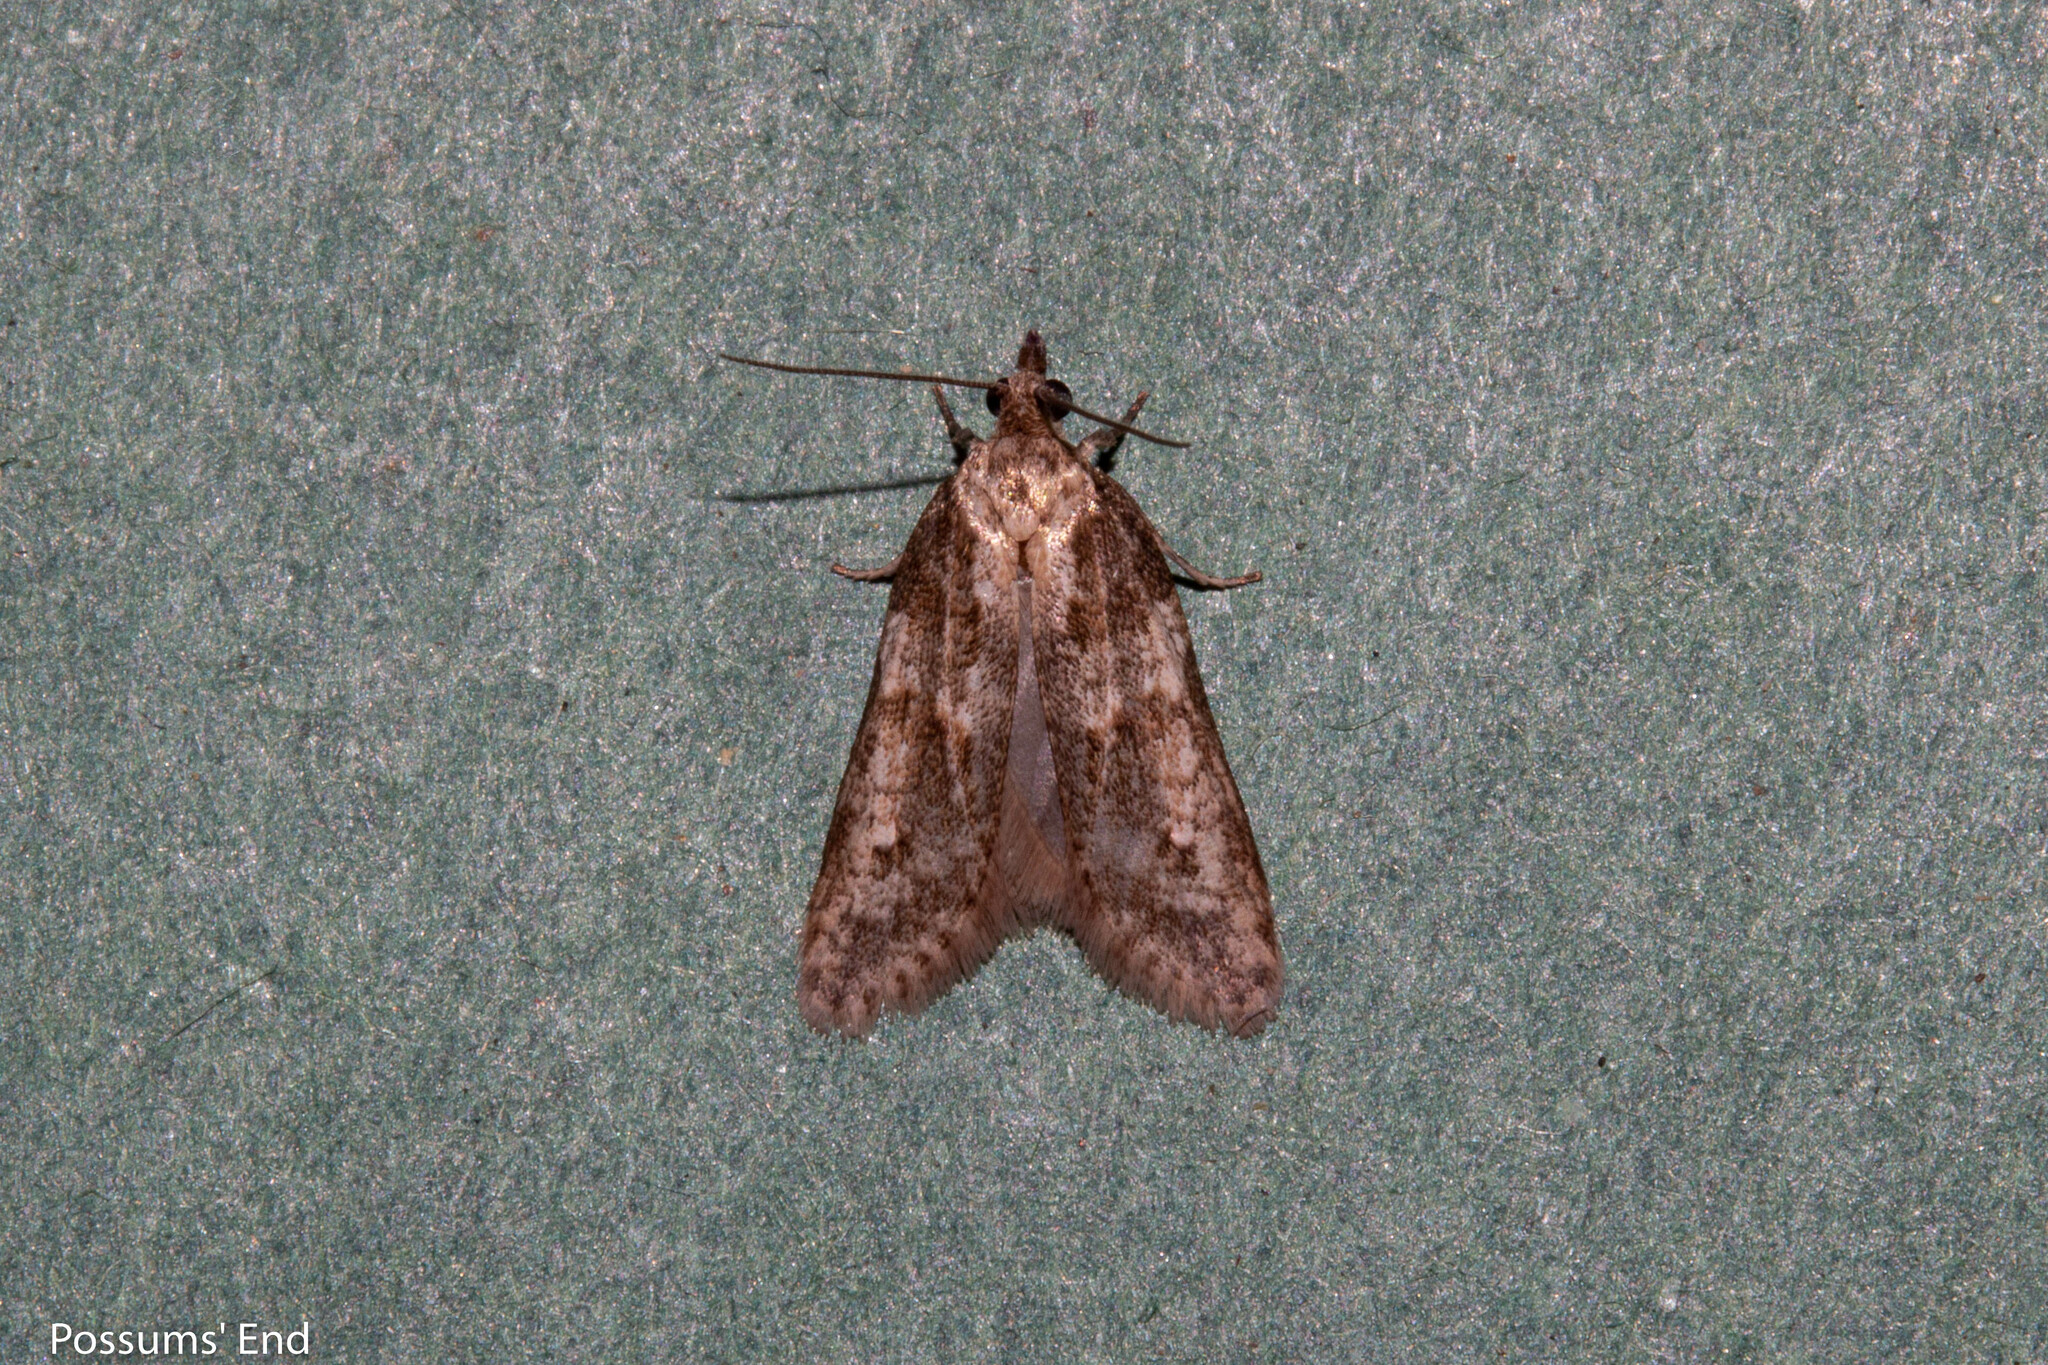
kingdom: Animalia
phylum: Arthropoda
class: Insecta
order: Lepidoptera
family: Tortricidae
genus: Prothelymna
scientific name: Prothelymna antiquana
